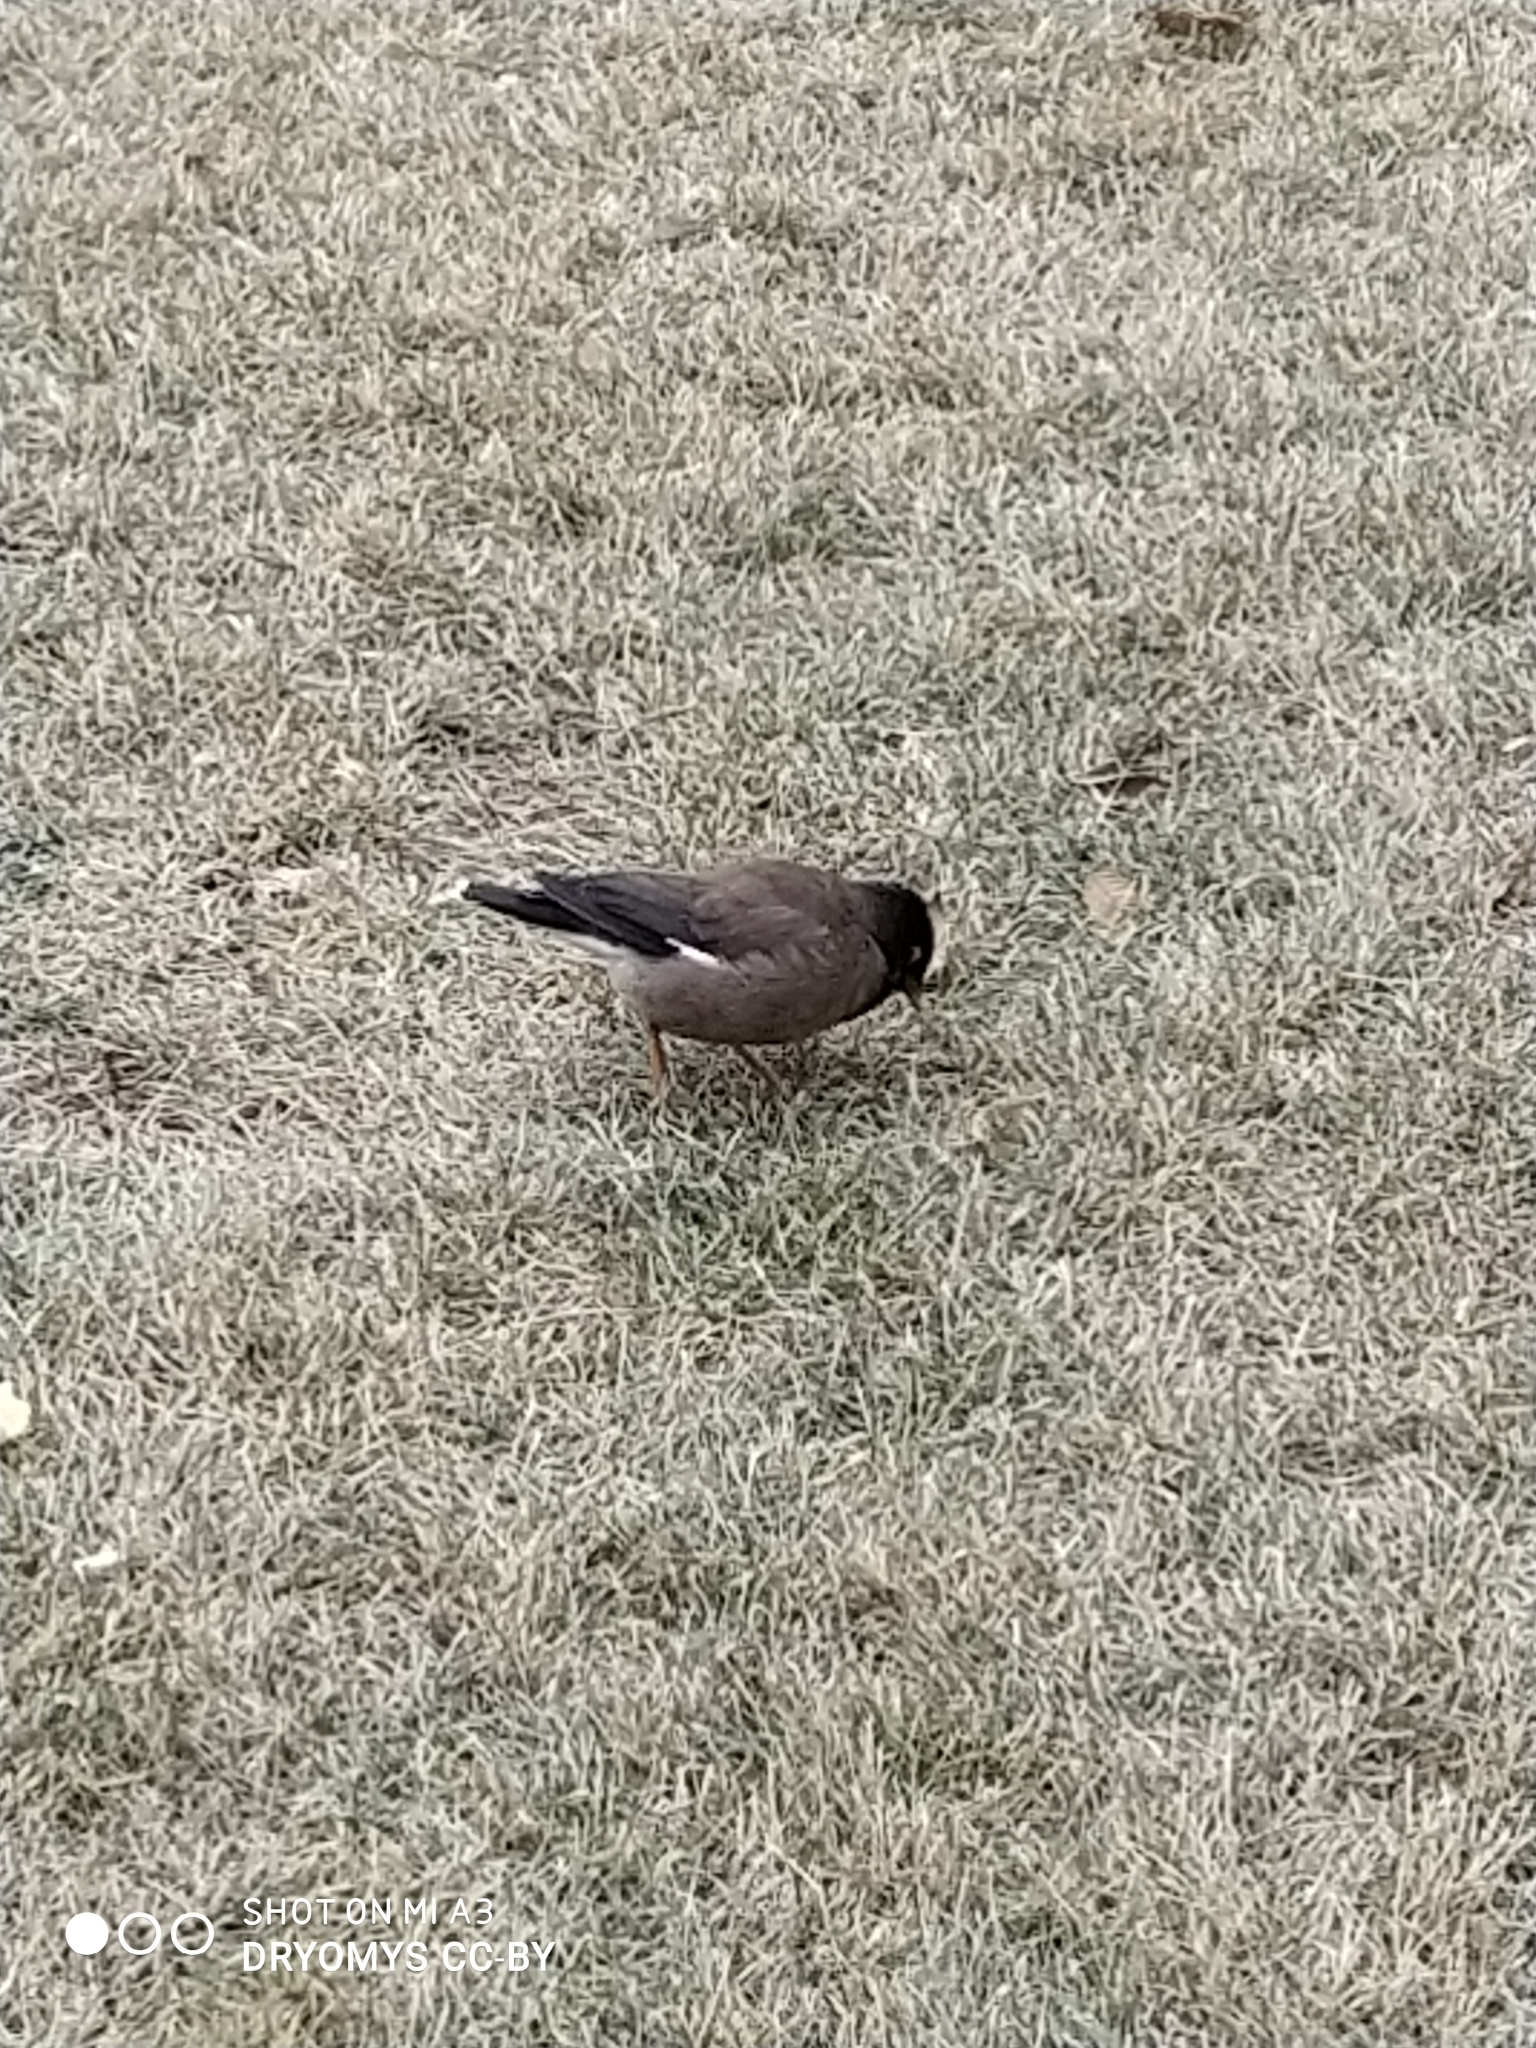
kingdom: Animalia
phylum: Chordata
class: Aves
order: Passeriformes
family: Sturnidae
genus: Acridotheres
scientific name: Acridotheres tristis
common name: Common myna
